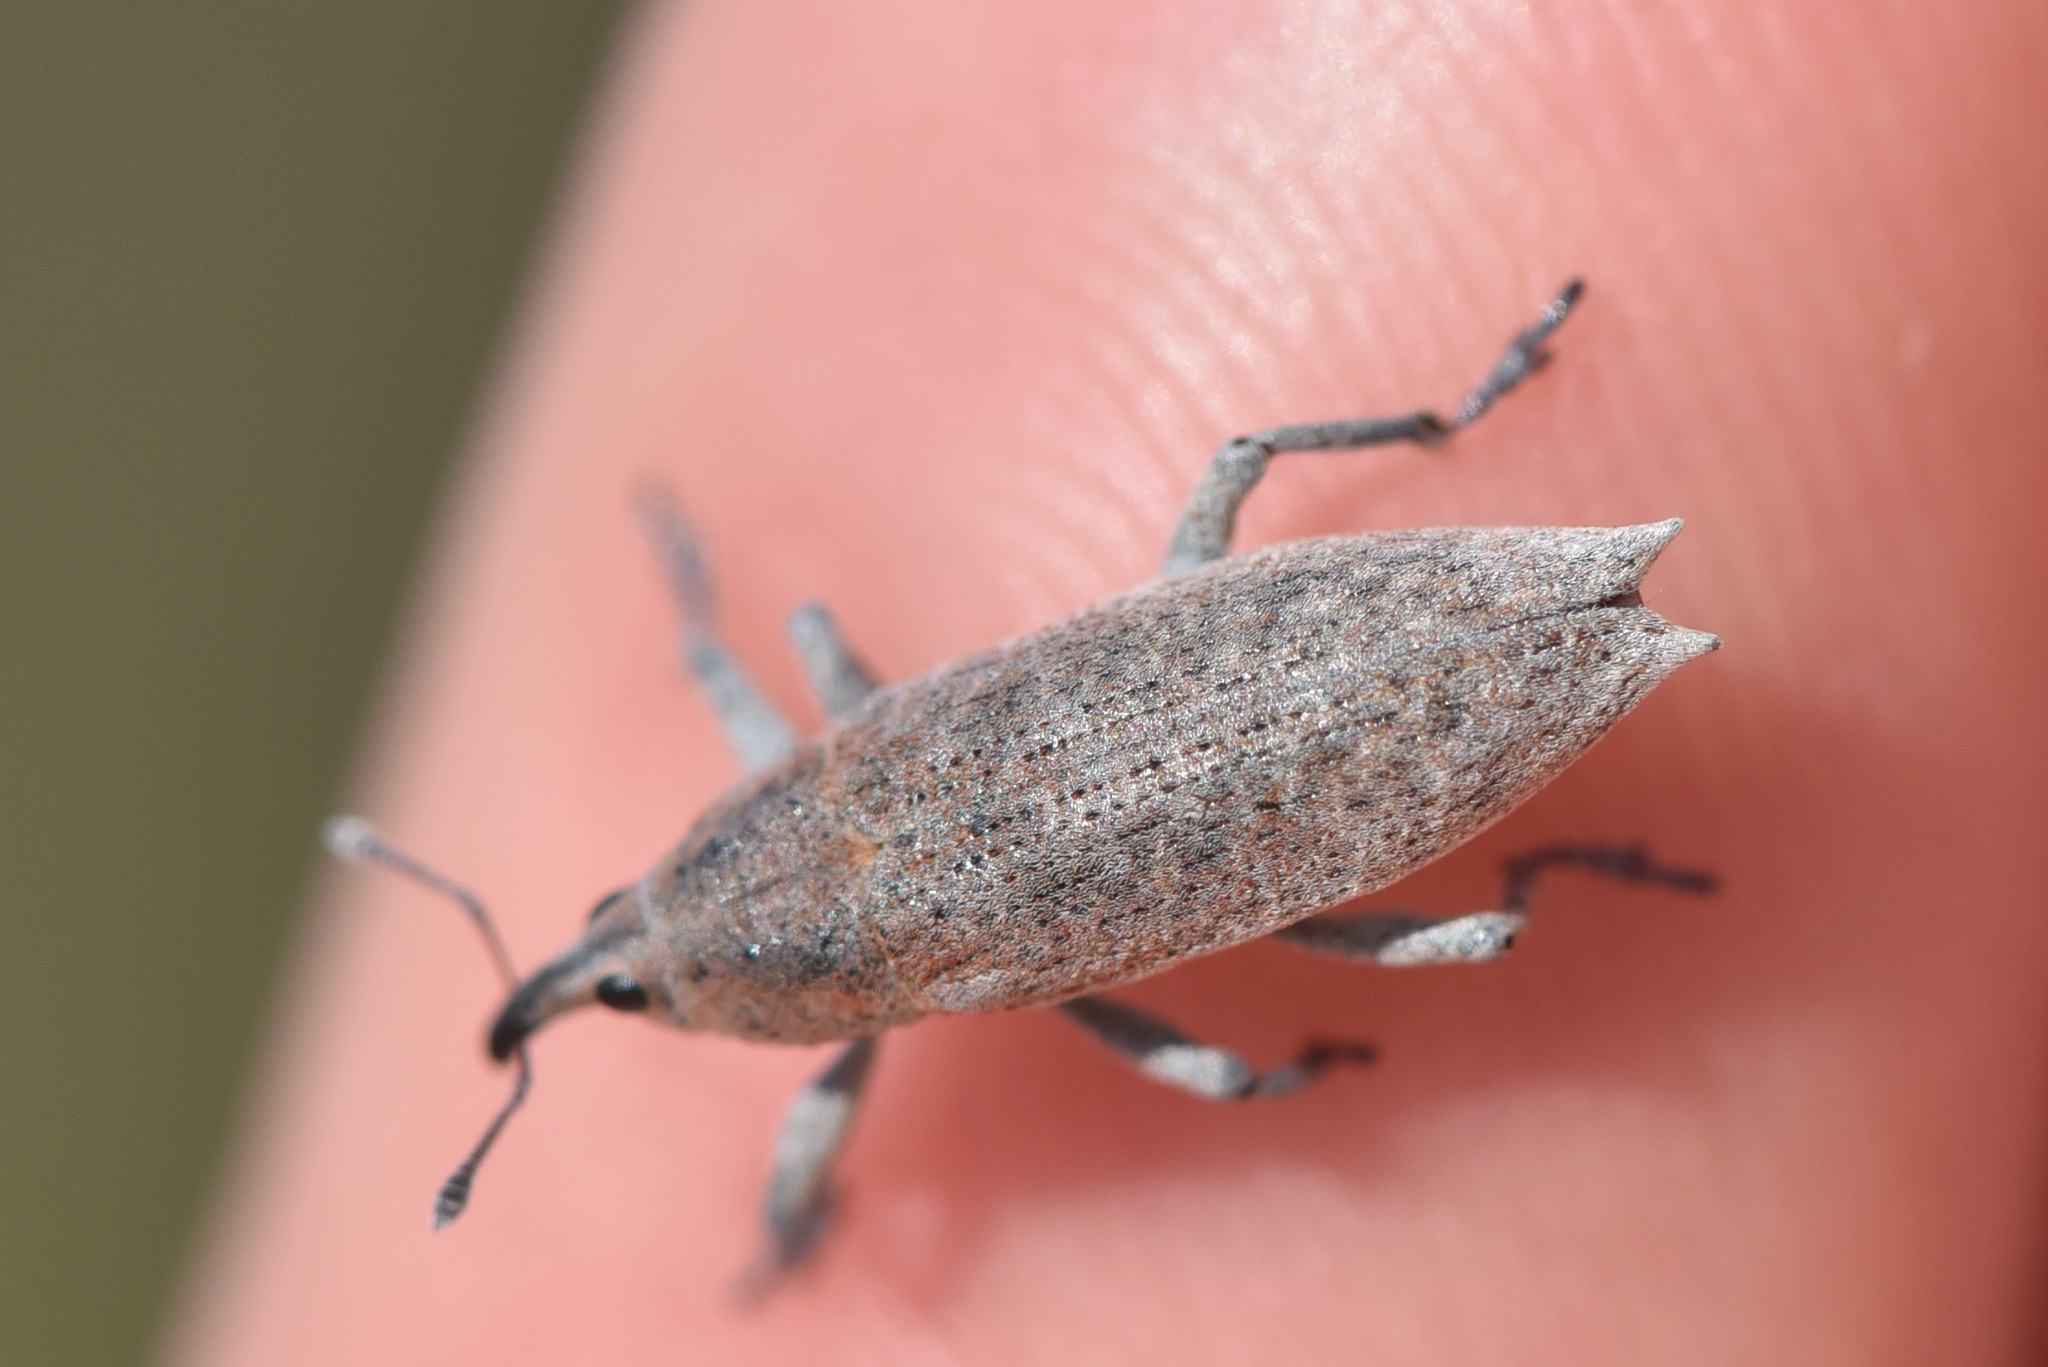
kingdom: Animalia
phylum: Arthropoda
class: Insecta
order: Coleoptera
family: Curculionidae
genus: Lixus
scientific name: Lixus caudifer
